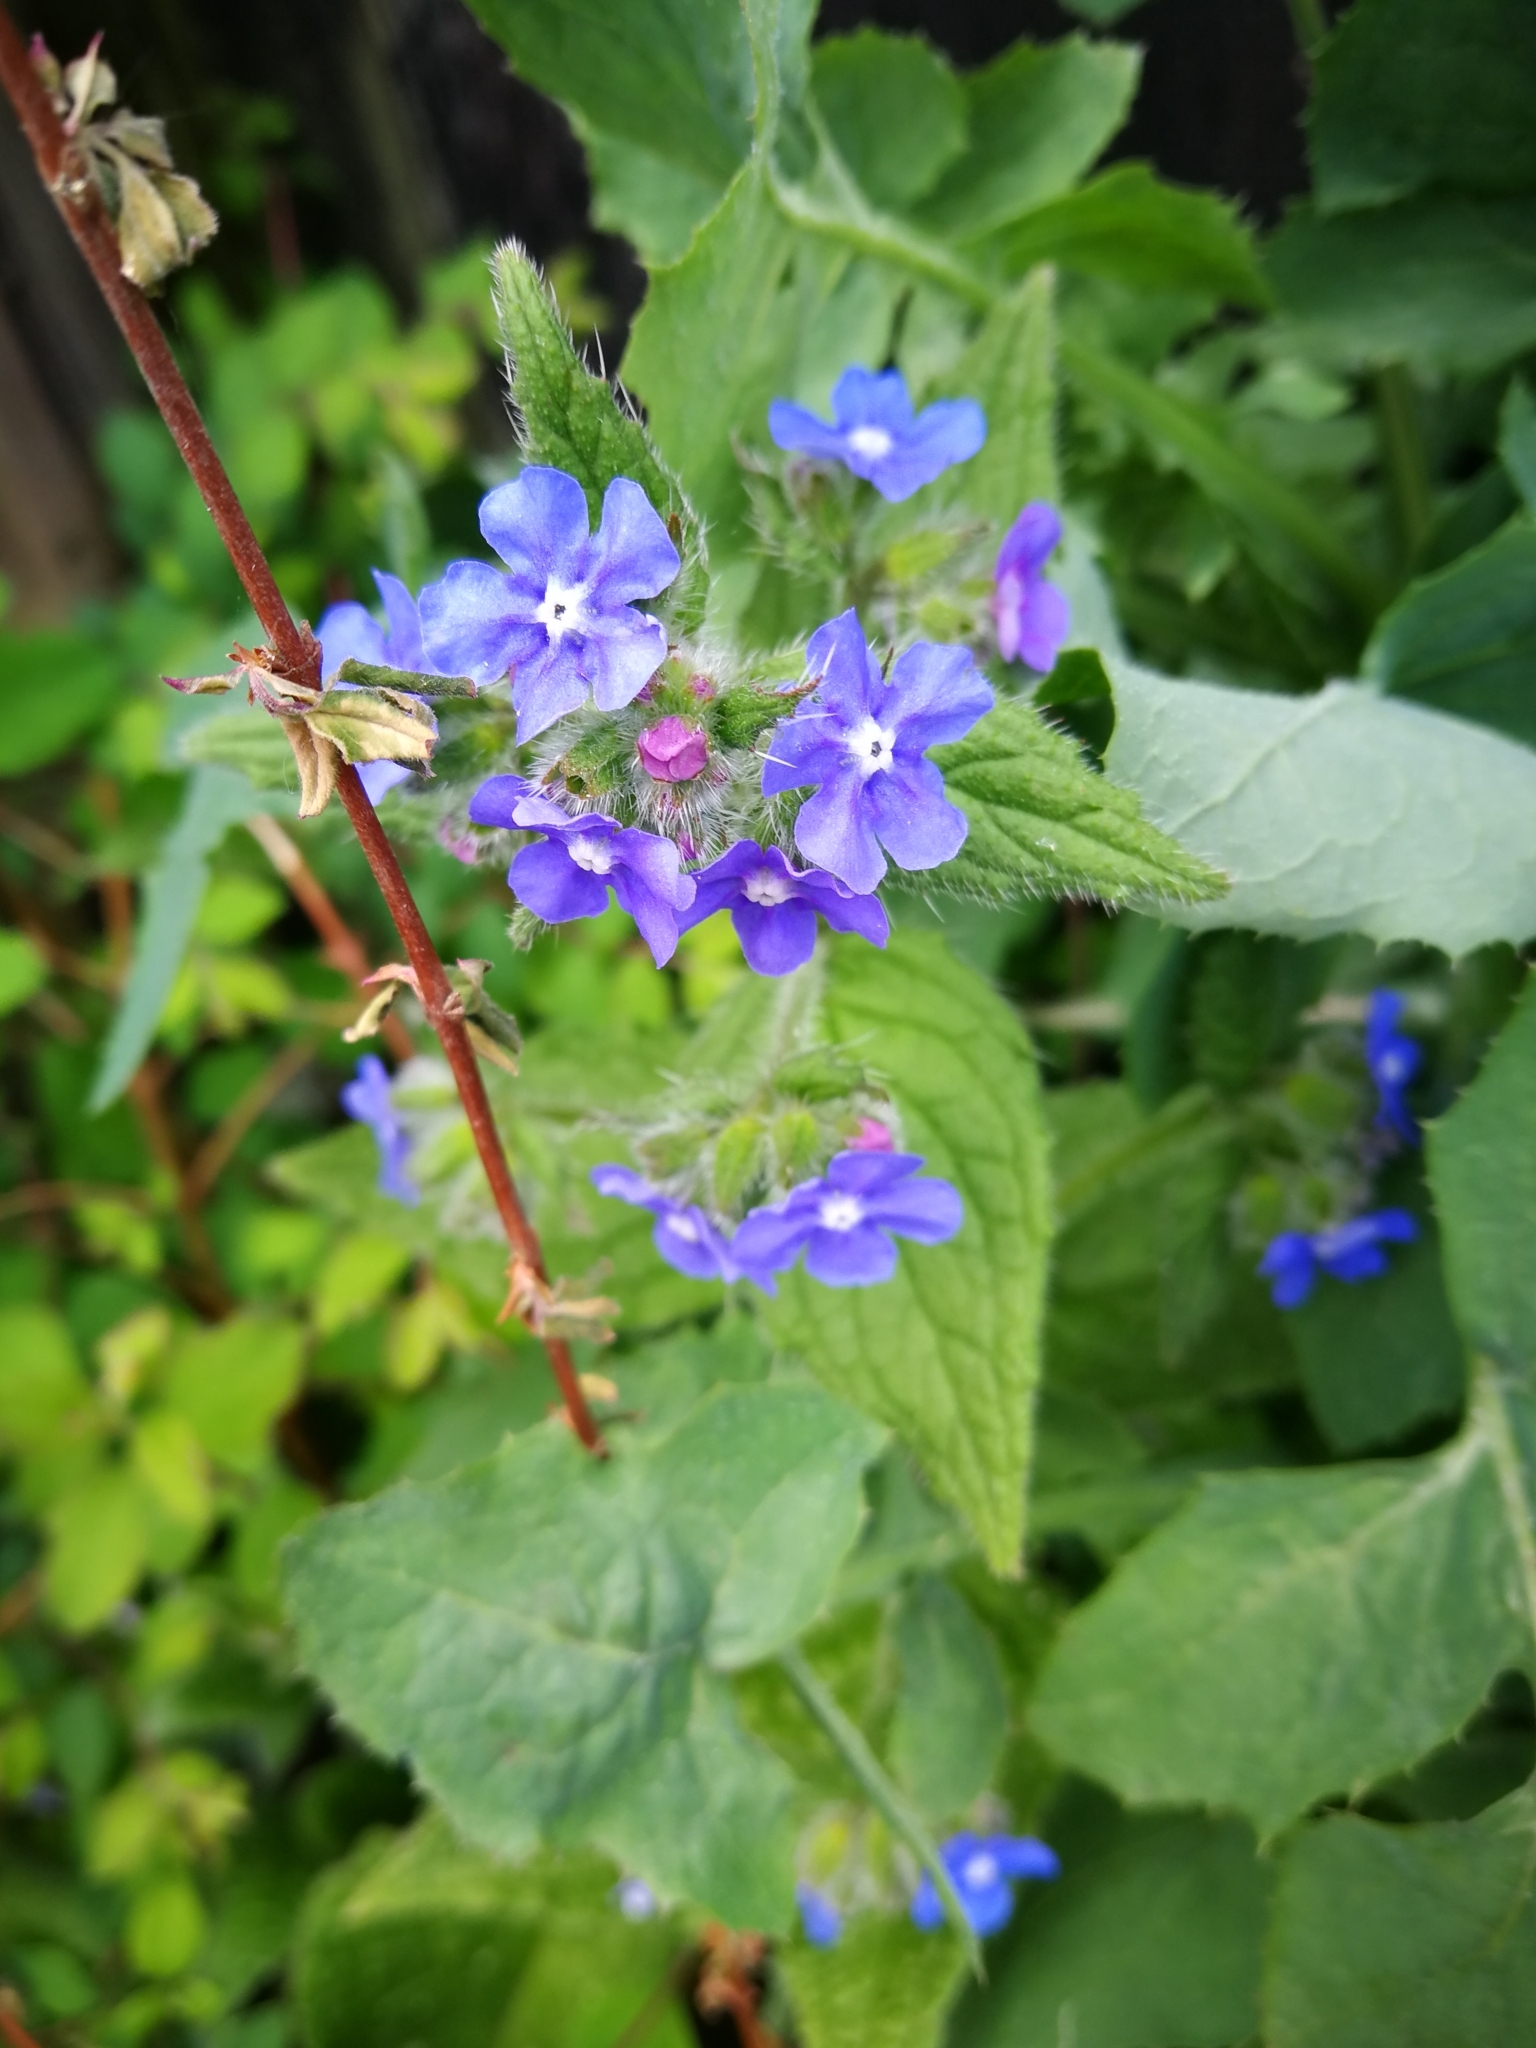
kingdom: Plantae
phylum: Tracheophyta
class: Magnoliopsida
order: Boraginales
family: Boraginaceae
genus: Pentaglottis
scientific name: Pentaglottis sempervirens
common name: Green alkanet
